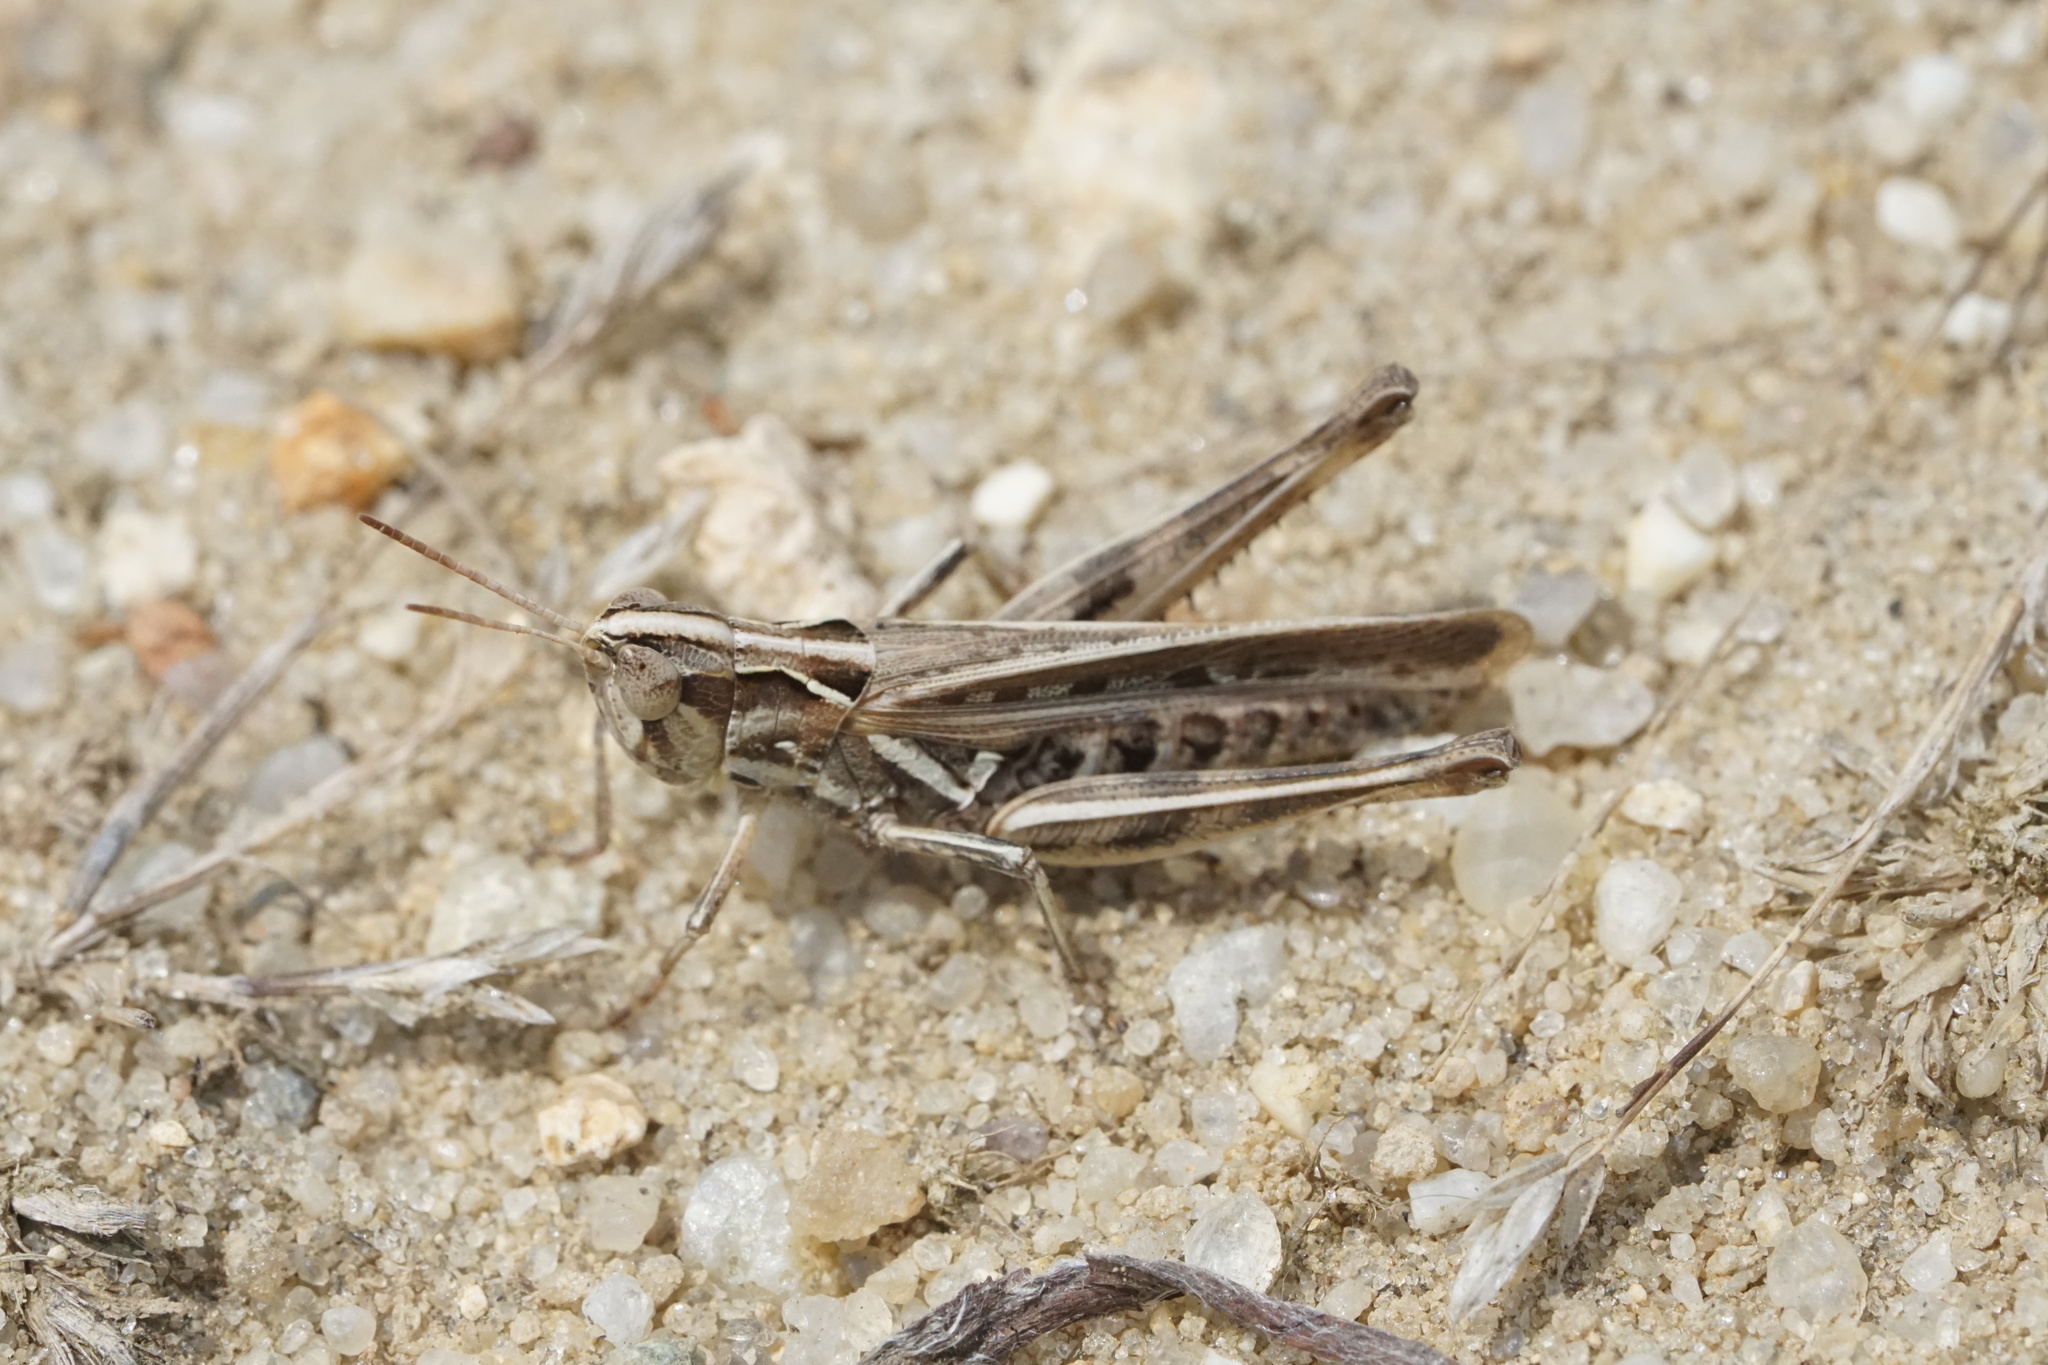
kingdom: Animalia
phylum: Arthropoda
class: Insecta
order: Orthoptera
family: Acrididae
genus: Orphulella
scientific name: Orphulella pelidna
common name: Spotted-wing grasshopper
